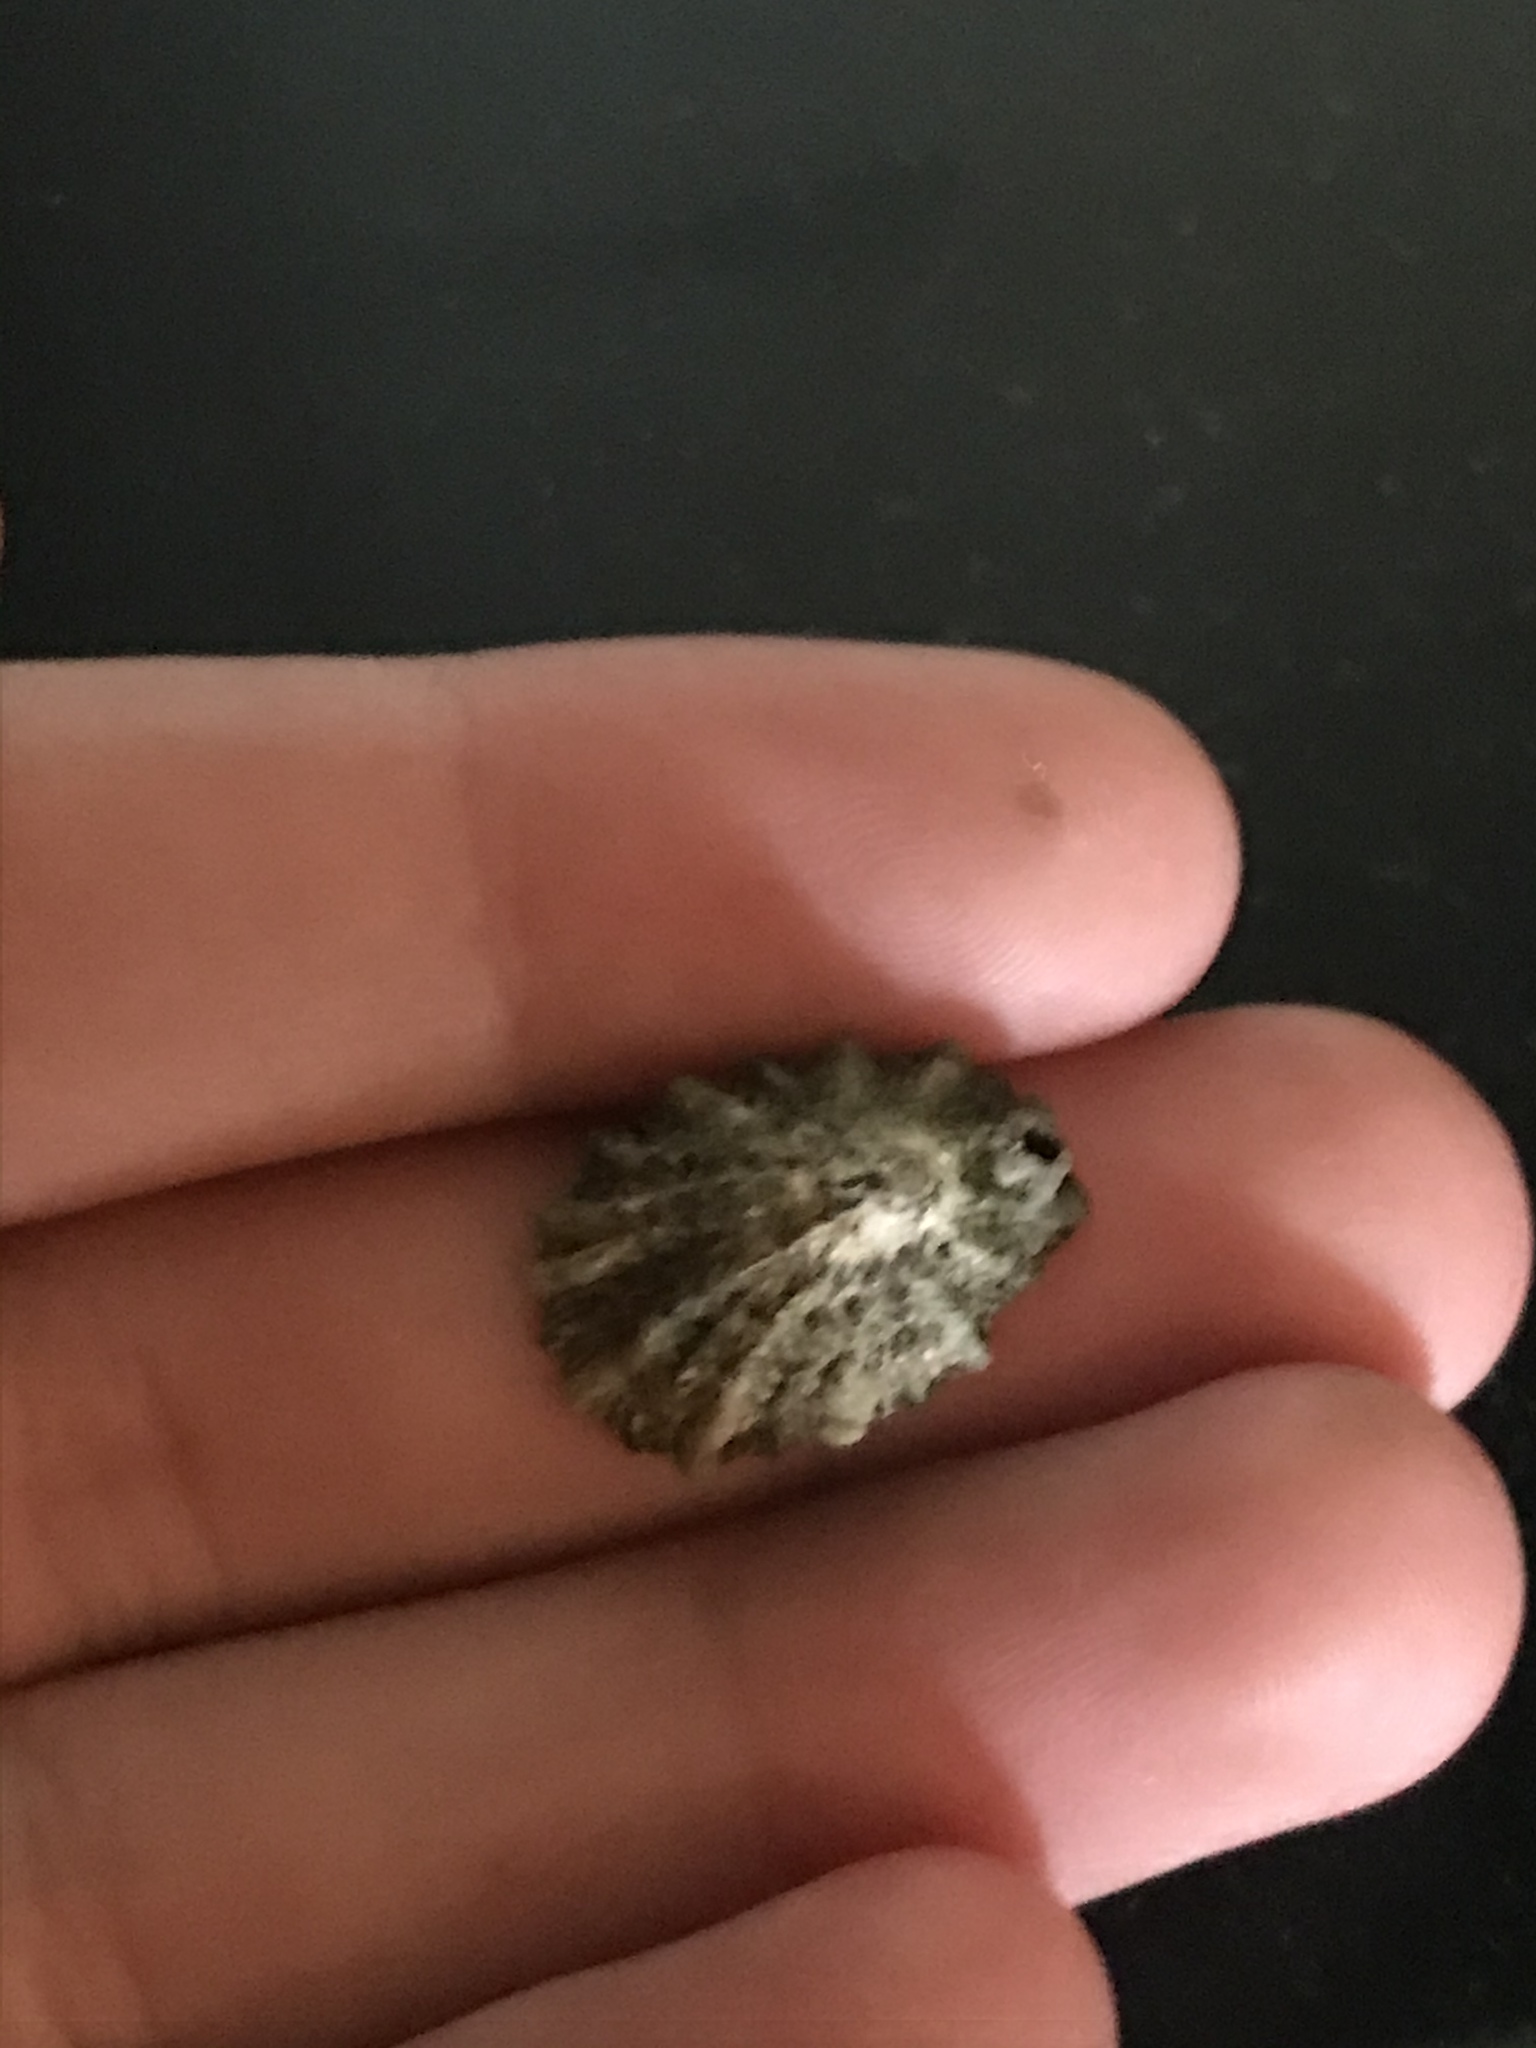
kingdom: Animalia
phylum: Mollusca
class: Gastropoda
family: Lottiidae
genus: Lottia
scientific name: Lottia scabra
